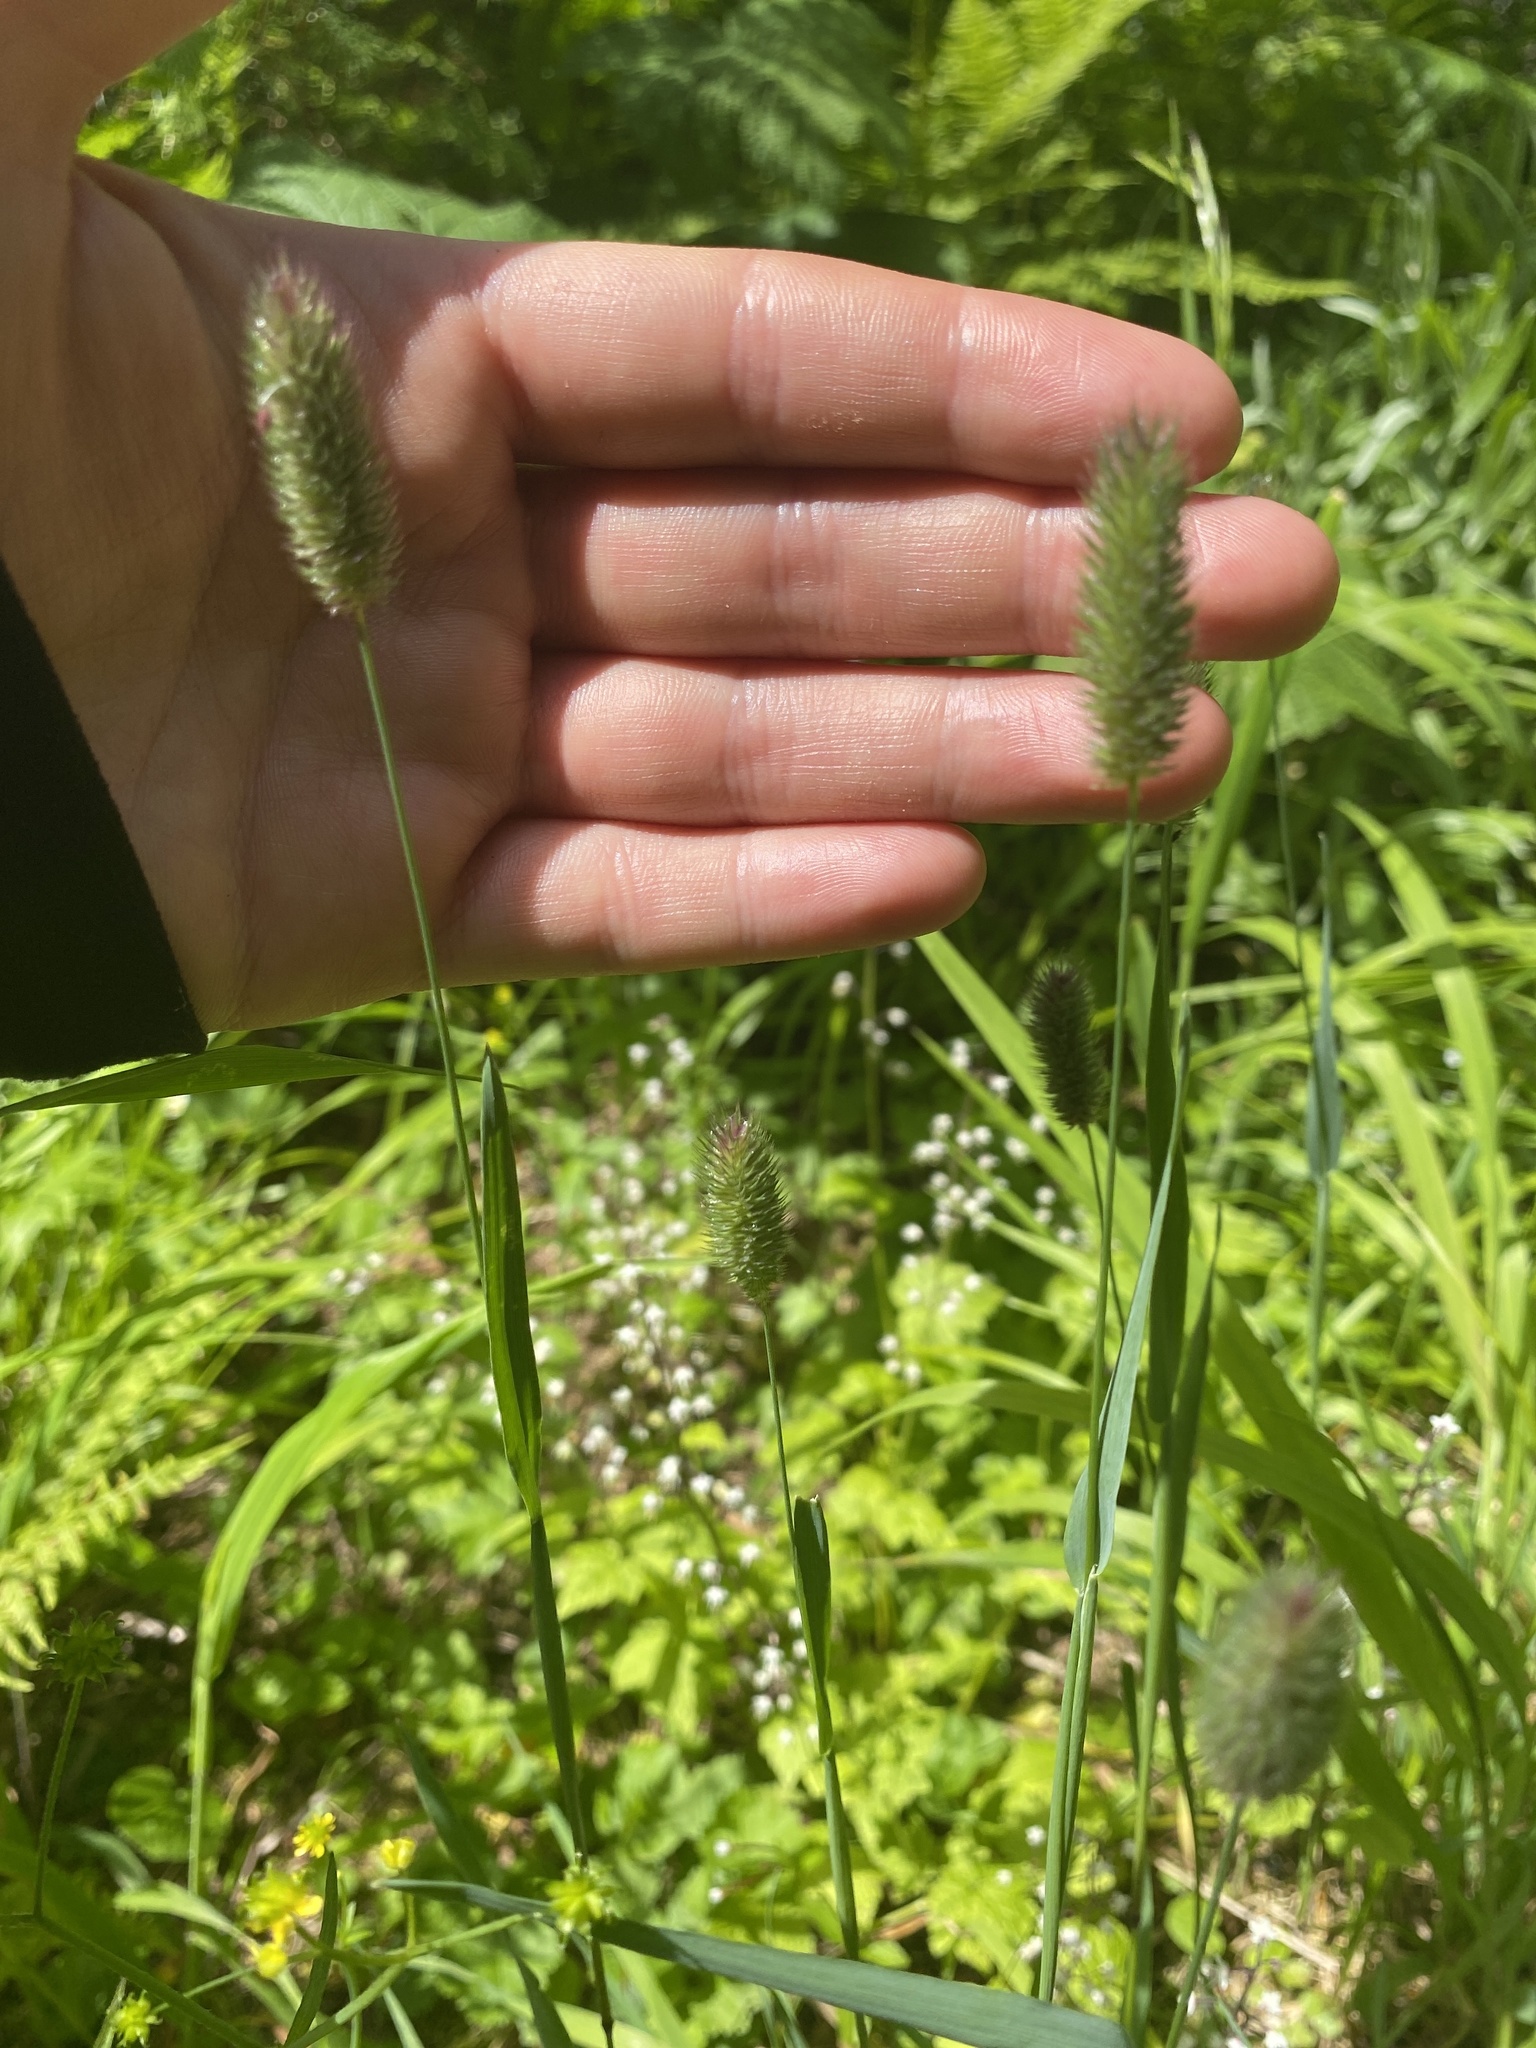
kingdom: Plantae
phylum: Tracheophyta
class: Liliopsida
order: Poales
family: Poaceae
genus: Phleum
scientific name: Phleum alpinum
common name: Alpine cat's-tail
